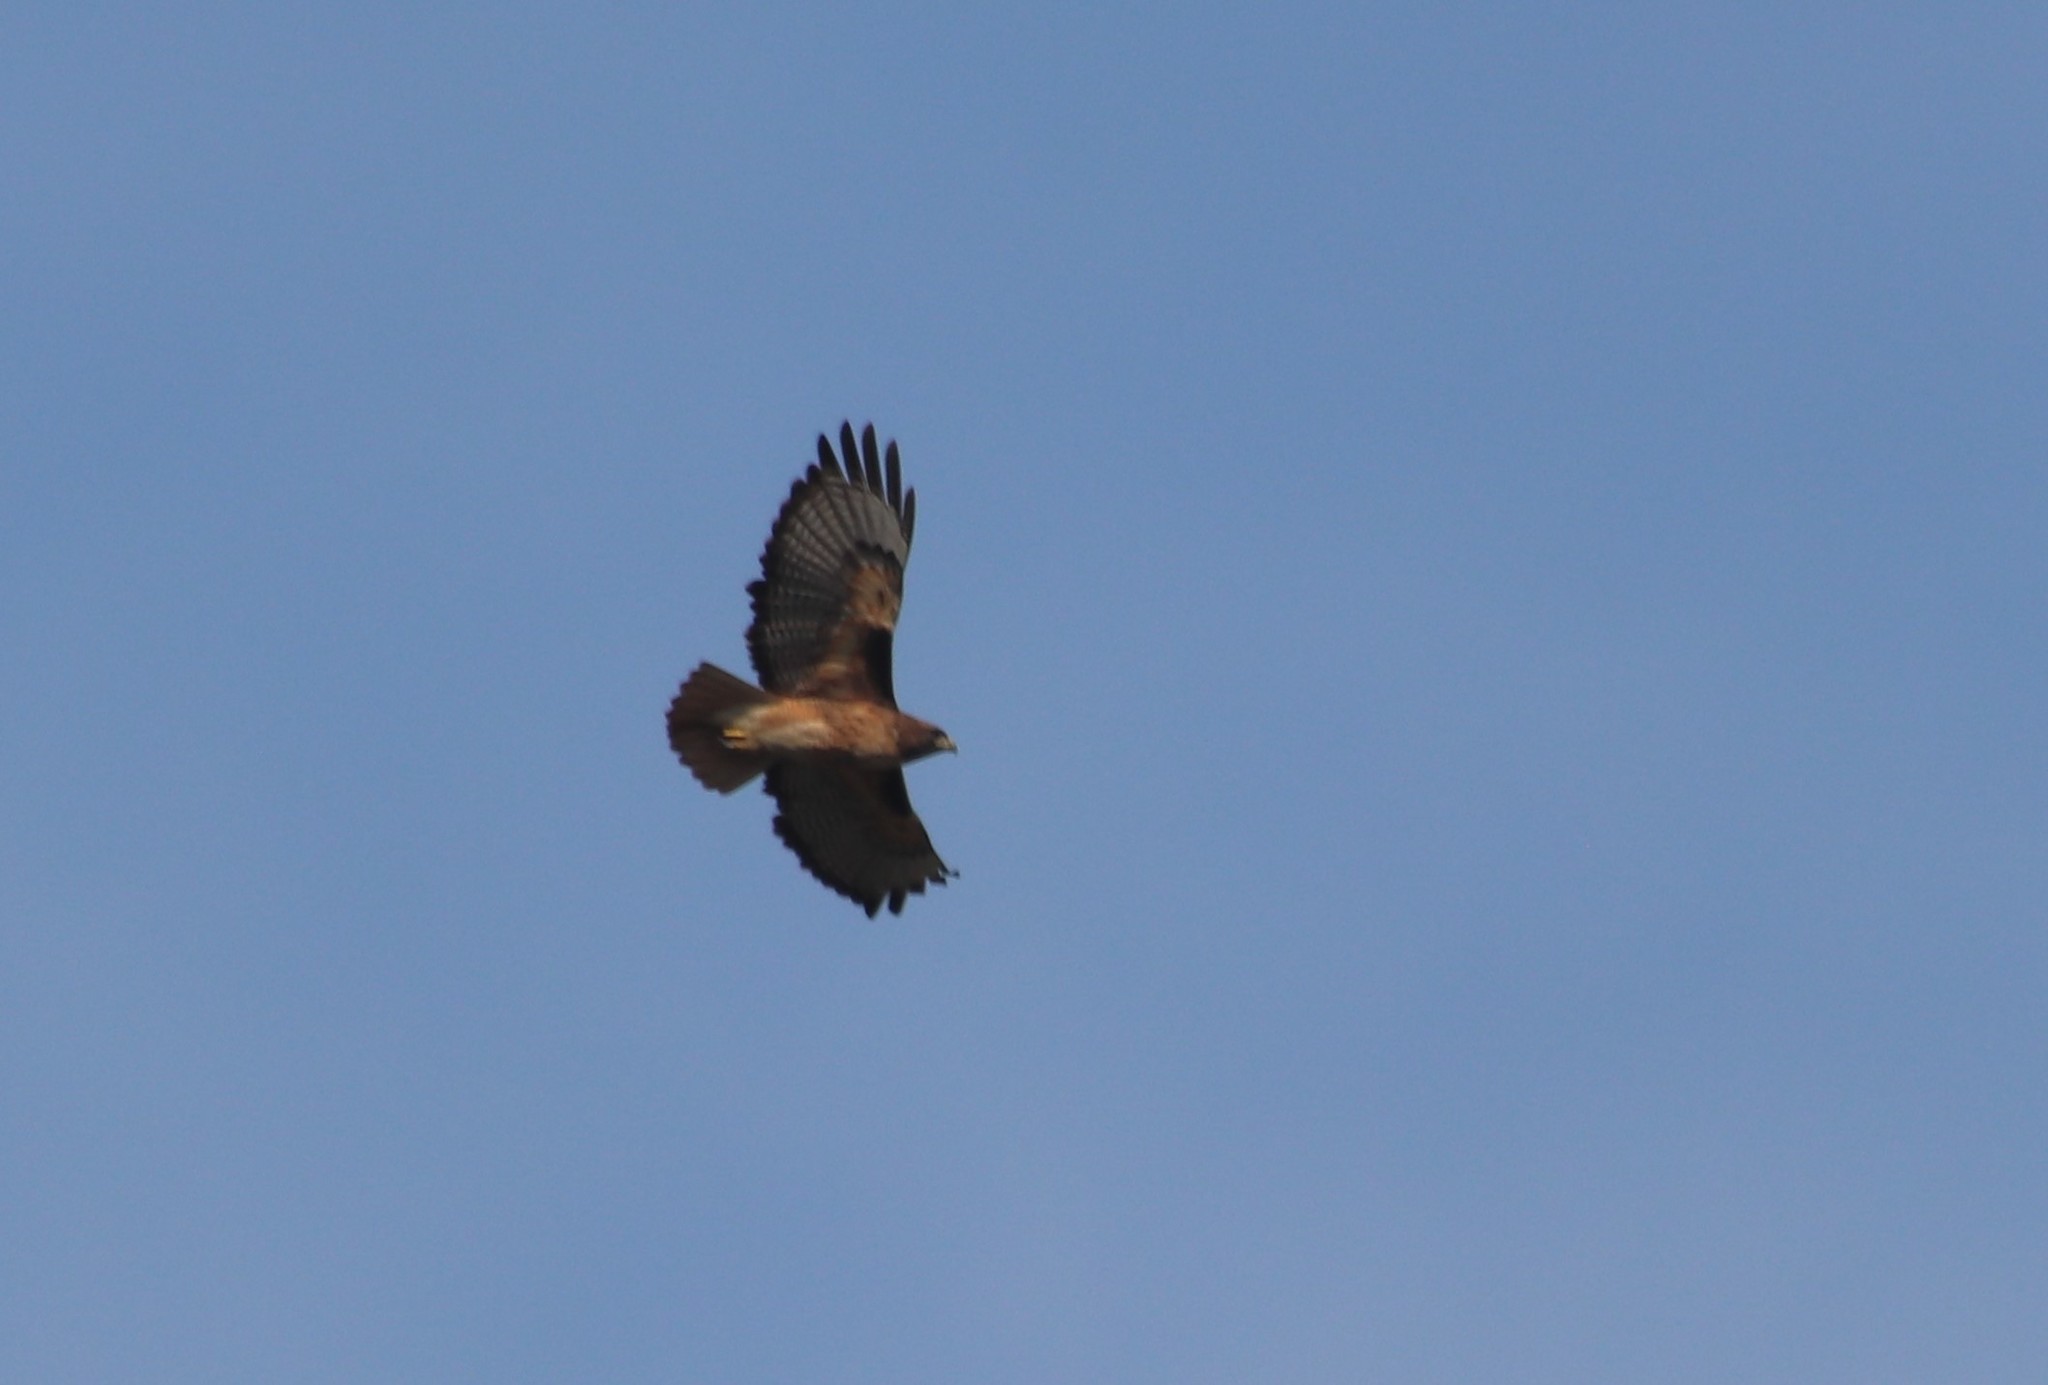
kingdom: Animalia
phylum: Chordata
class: Aves
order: Accipitriformes
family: Accipitridae
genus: Buteo
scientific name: Buteo jamaicensis
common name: Red-tailed hawk
